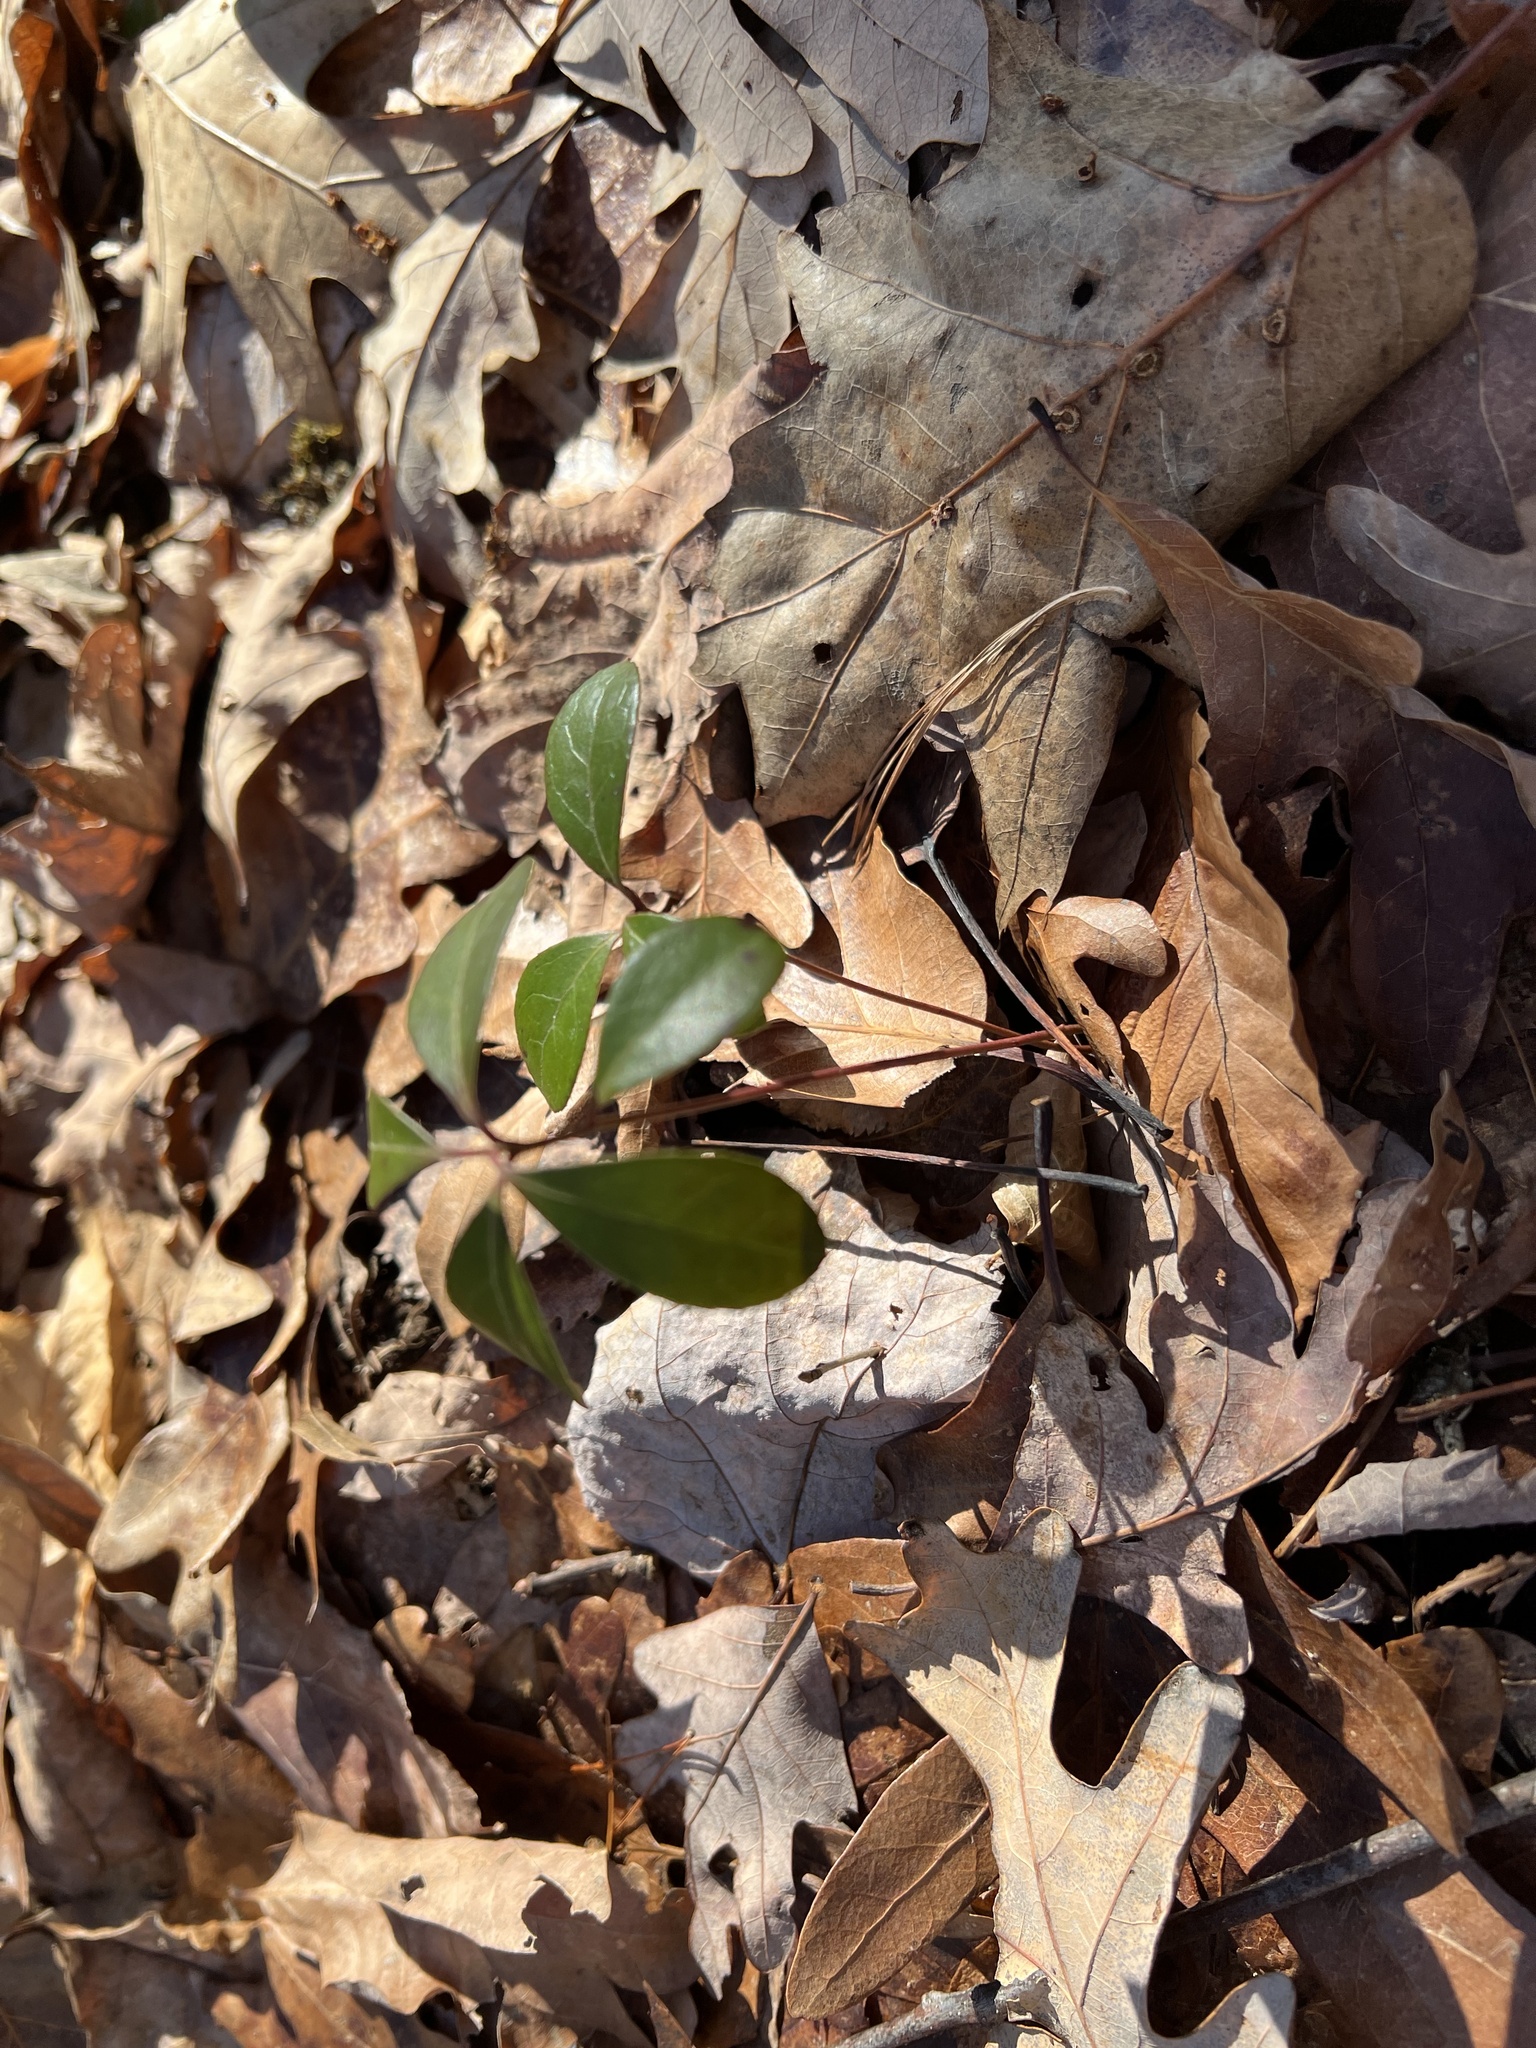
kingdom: Plantae
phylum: Tracheophyta
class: Magnoliopsida
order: Ericales
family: Ericaceae
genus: Gaultheria
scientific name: Gaultheria procumbens
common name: Checkerberry
